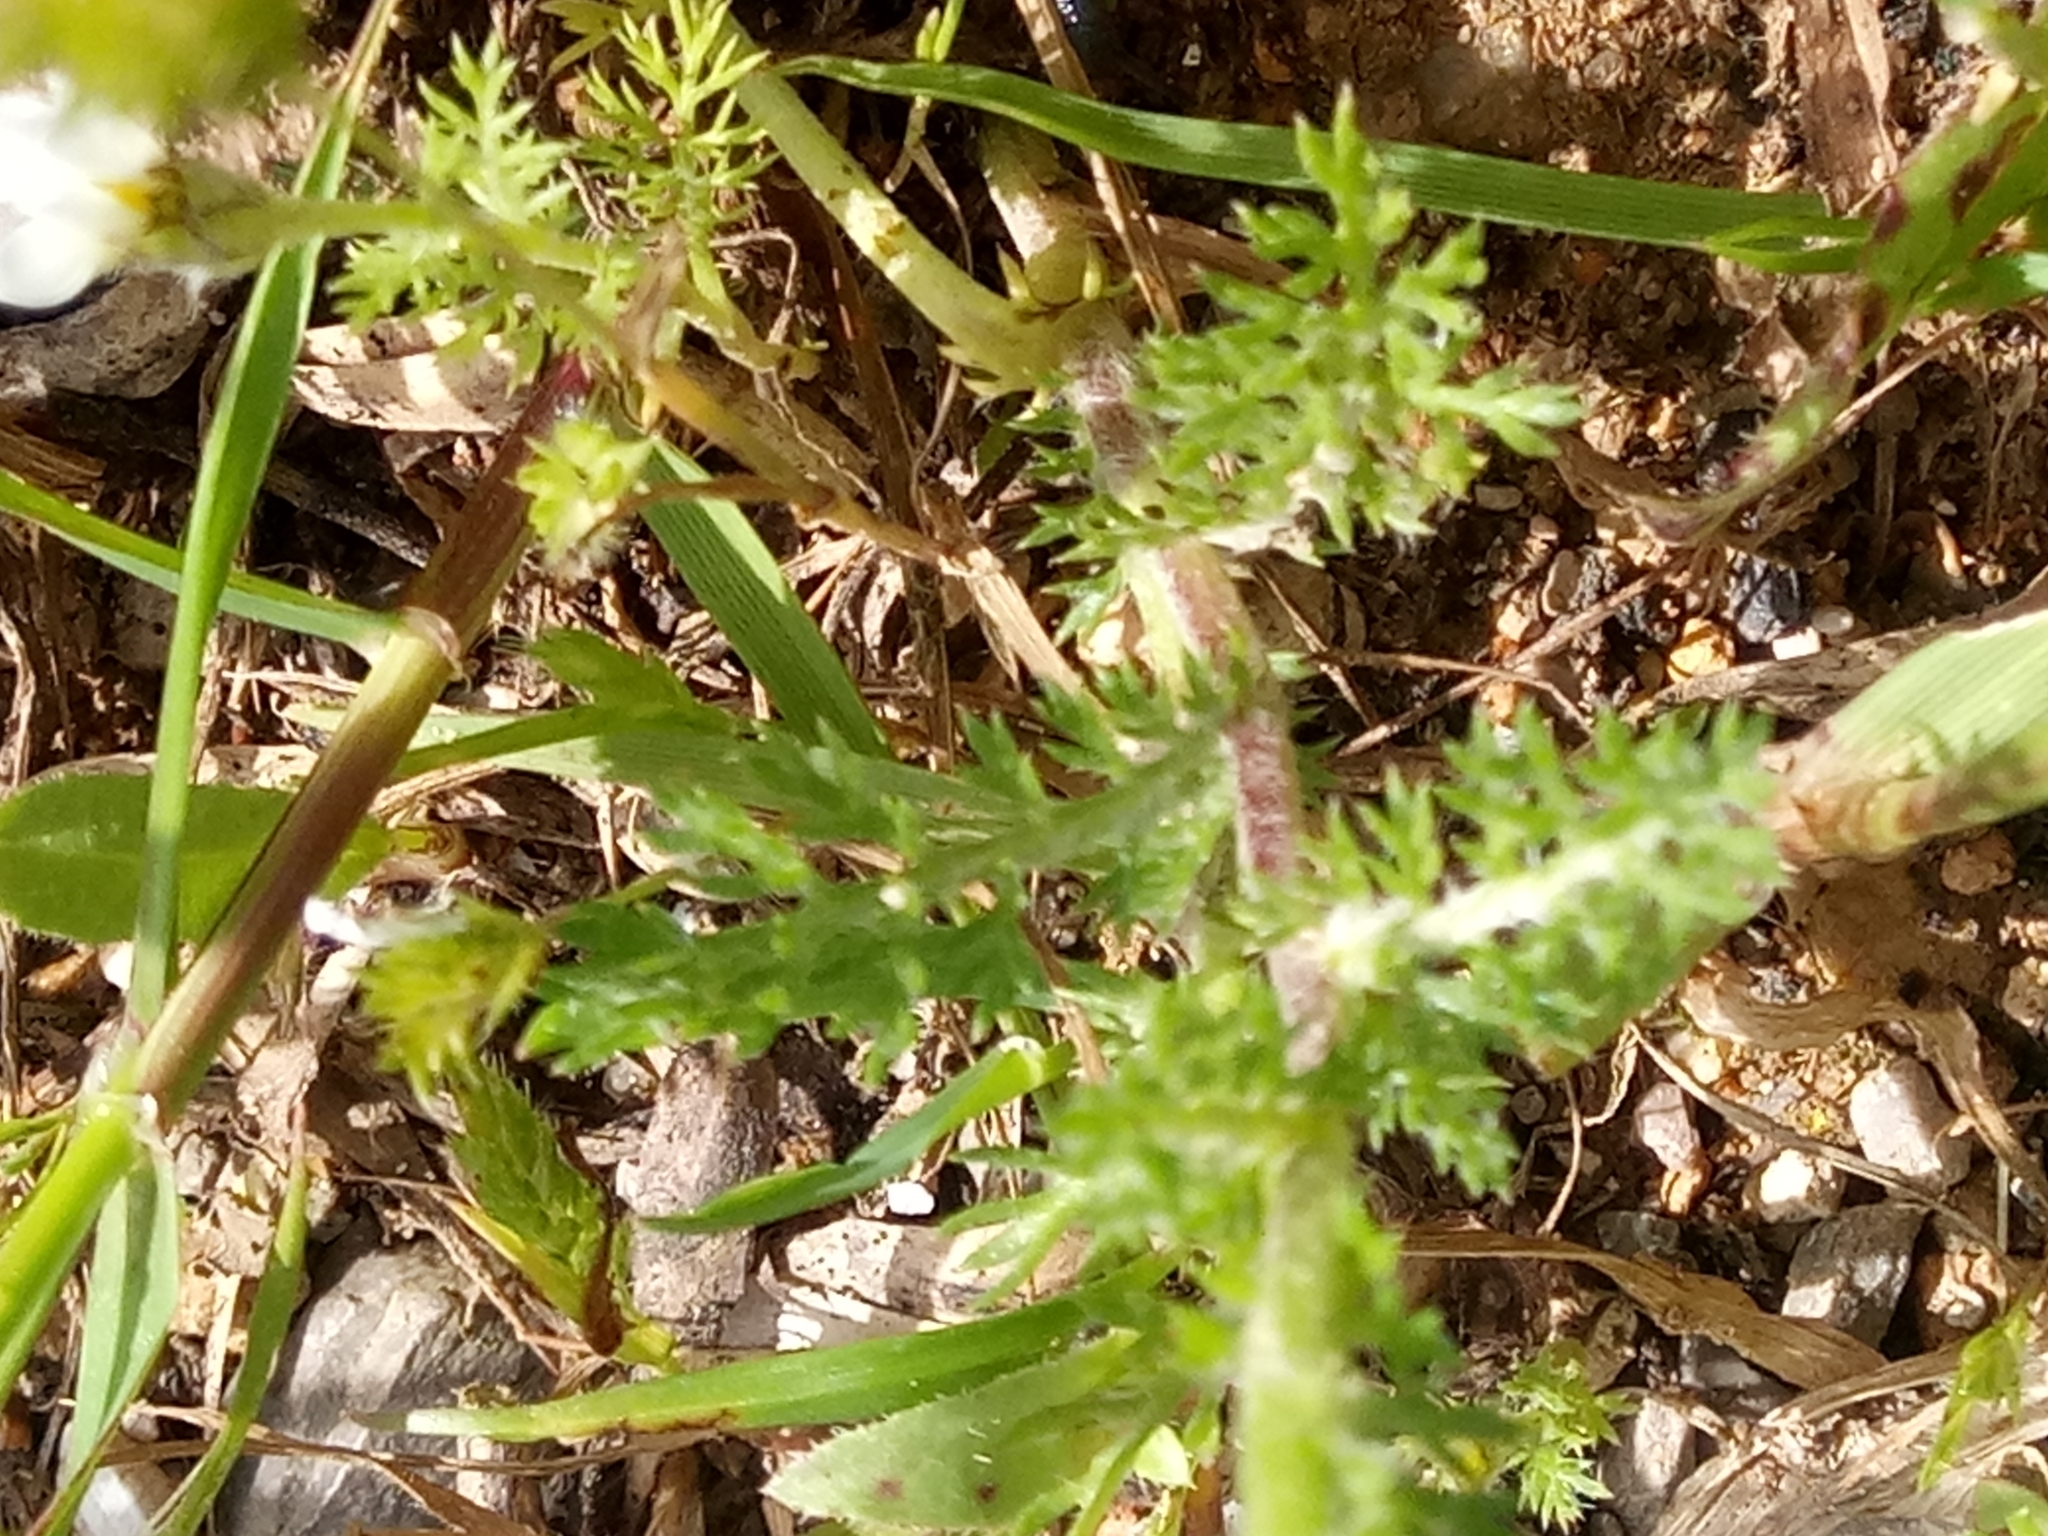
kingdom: Plantae
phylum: Tracheophyta
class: Magnoliopsida
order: Asterales
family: Asteraceae
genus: Anacyclus
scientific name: Anacyclus clavatus
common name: Whitebuttons
